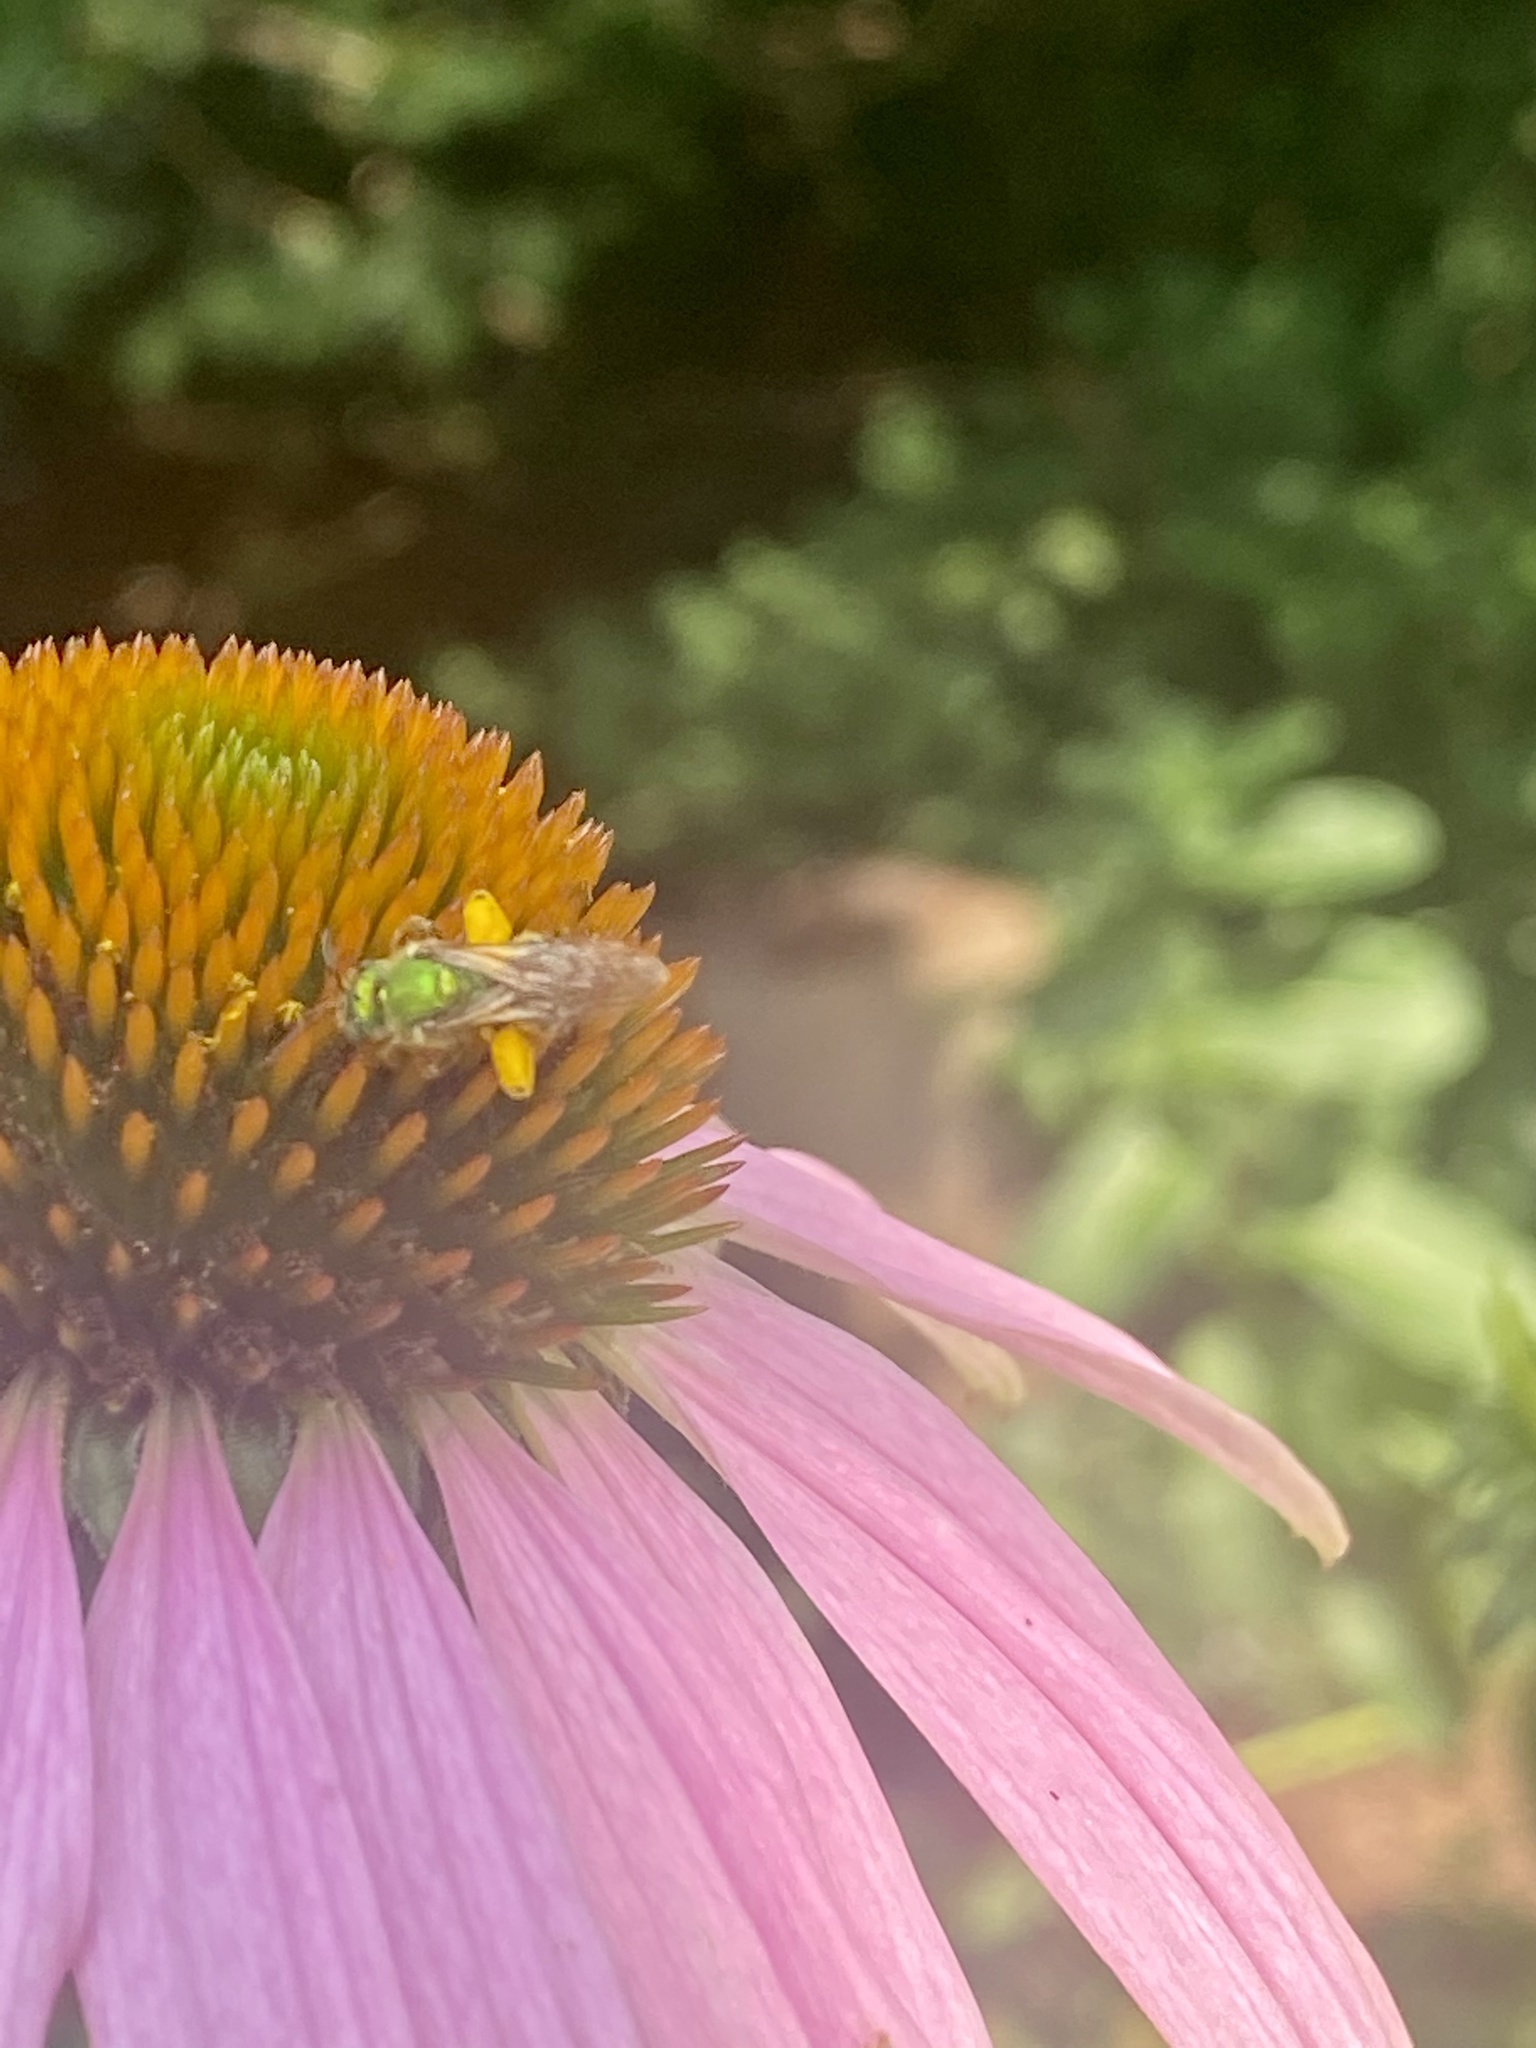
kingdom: Animalia
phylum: Arthropoda
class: Insecta
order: Hymenoptera
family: Halictidae
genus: Agapostemon
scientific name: Agapostemon virescens
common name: Bicolored striped sweat bee
